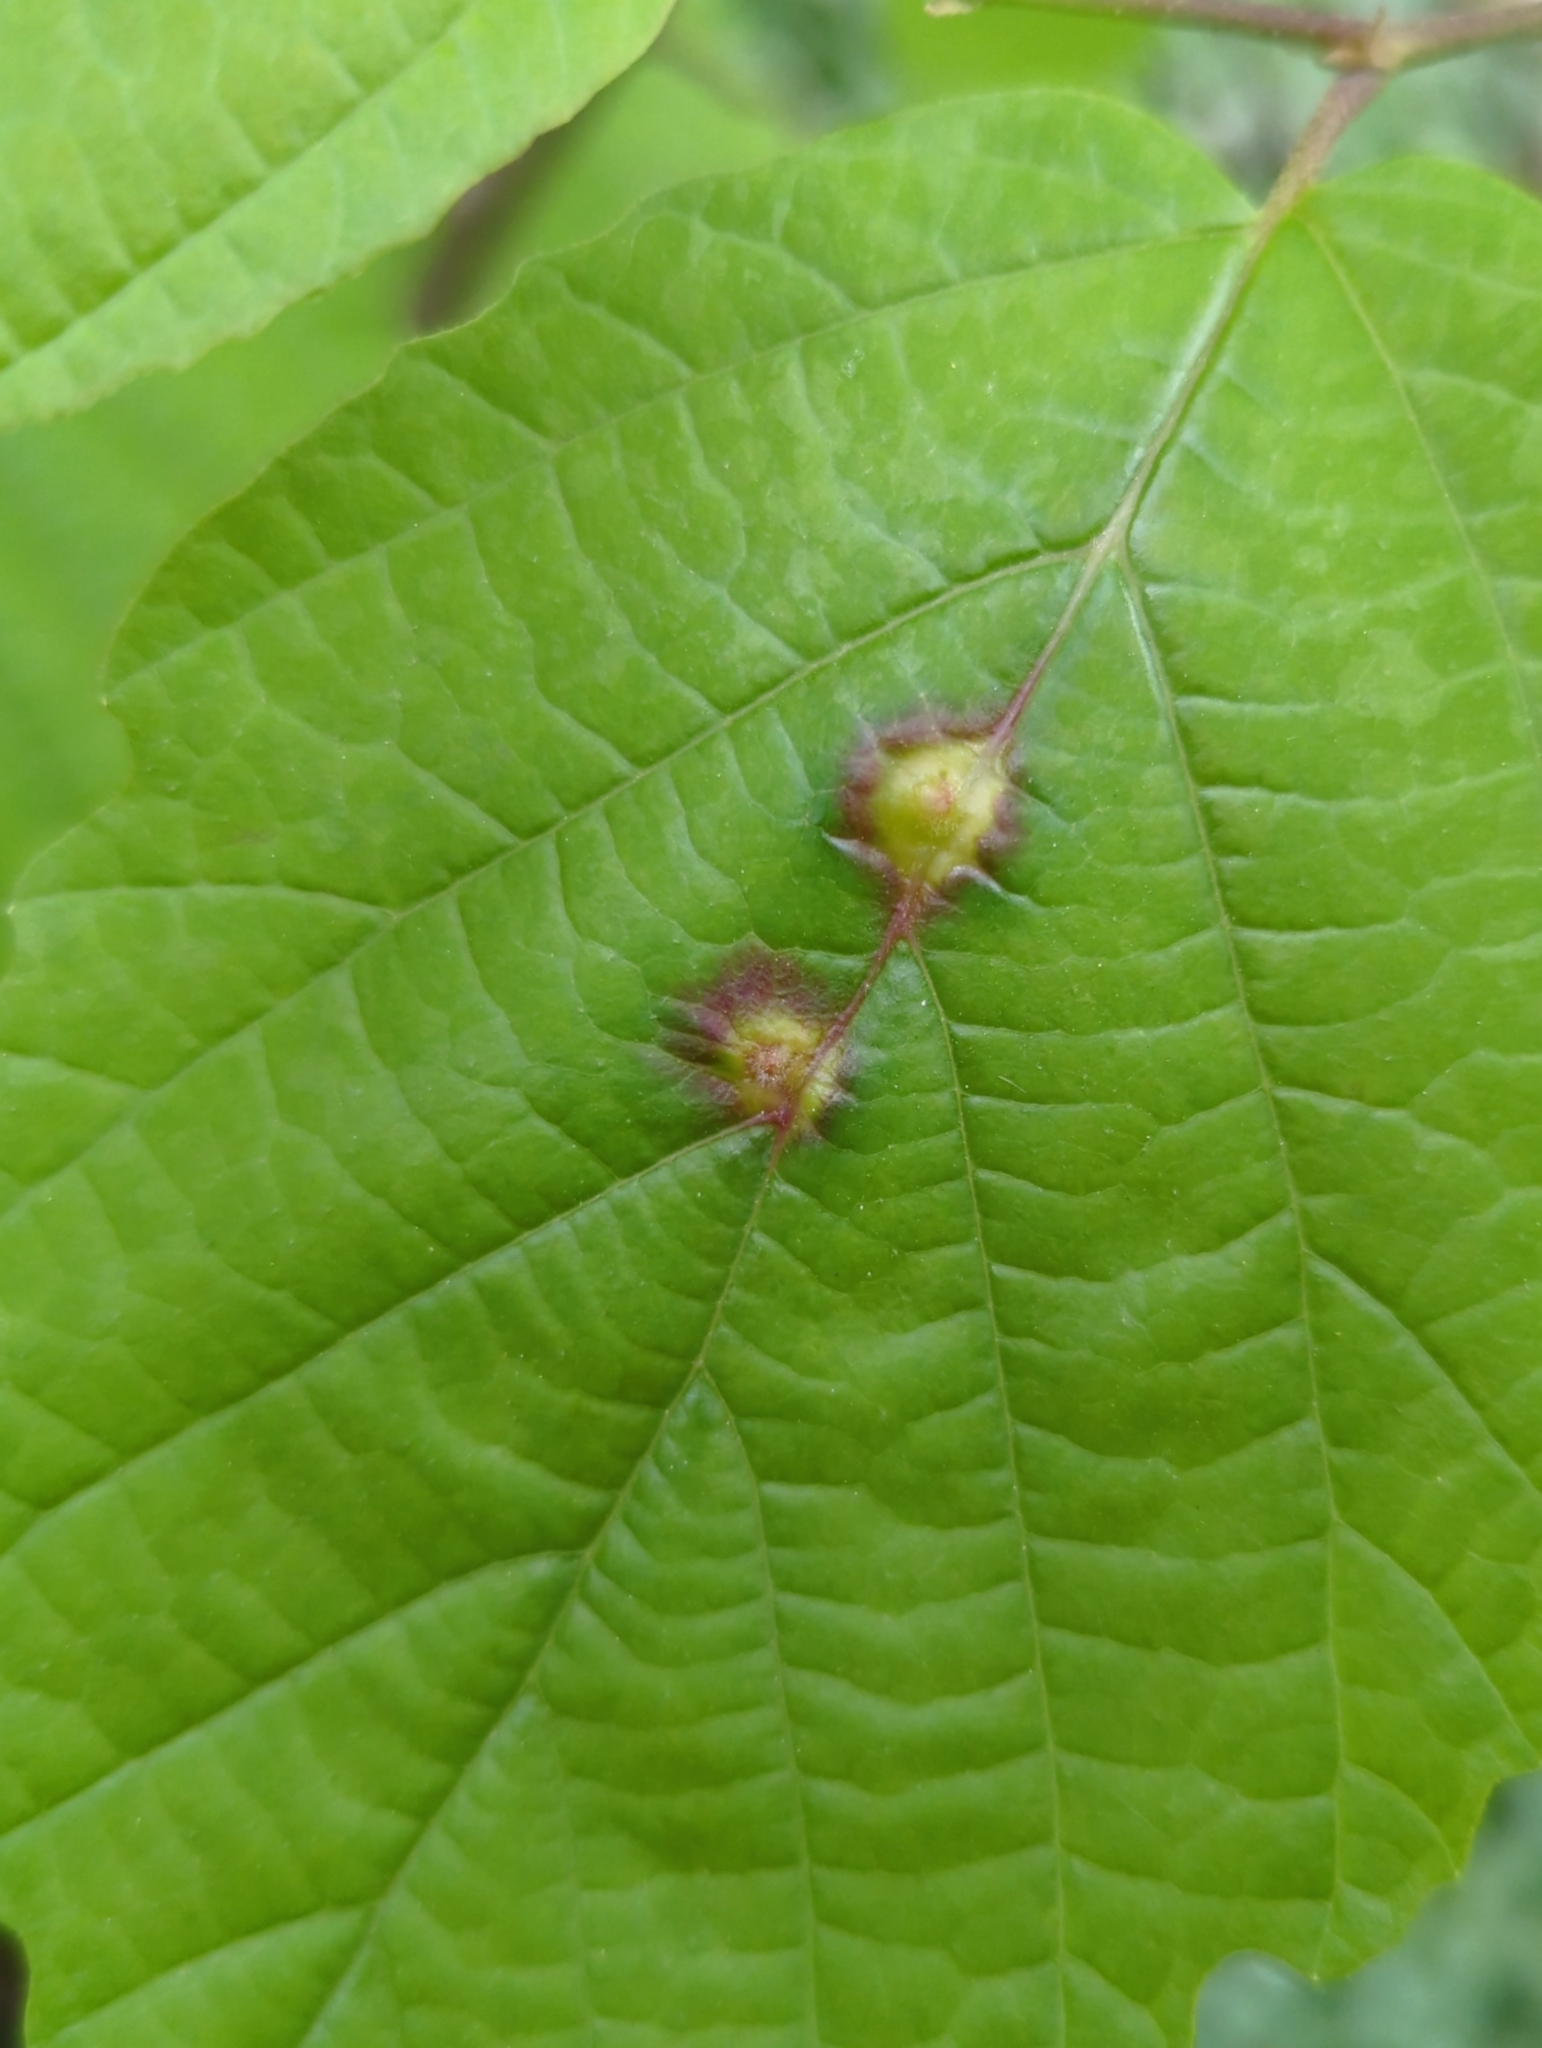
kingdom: Animalia
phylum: Arthropoda
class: Insecta
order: Hemiptera
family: Aphididae
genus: Hormaphis
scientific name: Hormaphis hamamelidis
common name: Witch-hazel cone gall aphid
